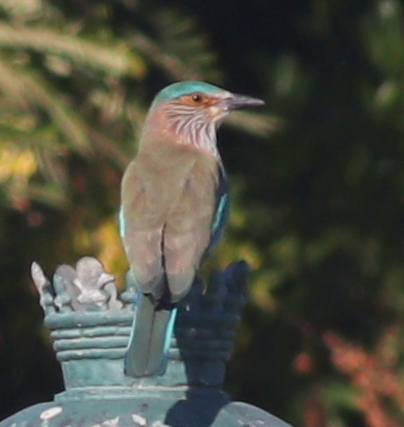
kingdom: Animalia
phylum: Chordata
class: Aves
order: Coraciiformes
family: Coraciidae
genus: Coracias
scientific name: Coracias benghalensis
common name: Indian roller
